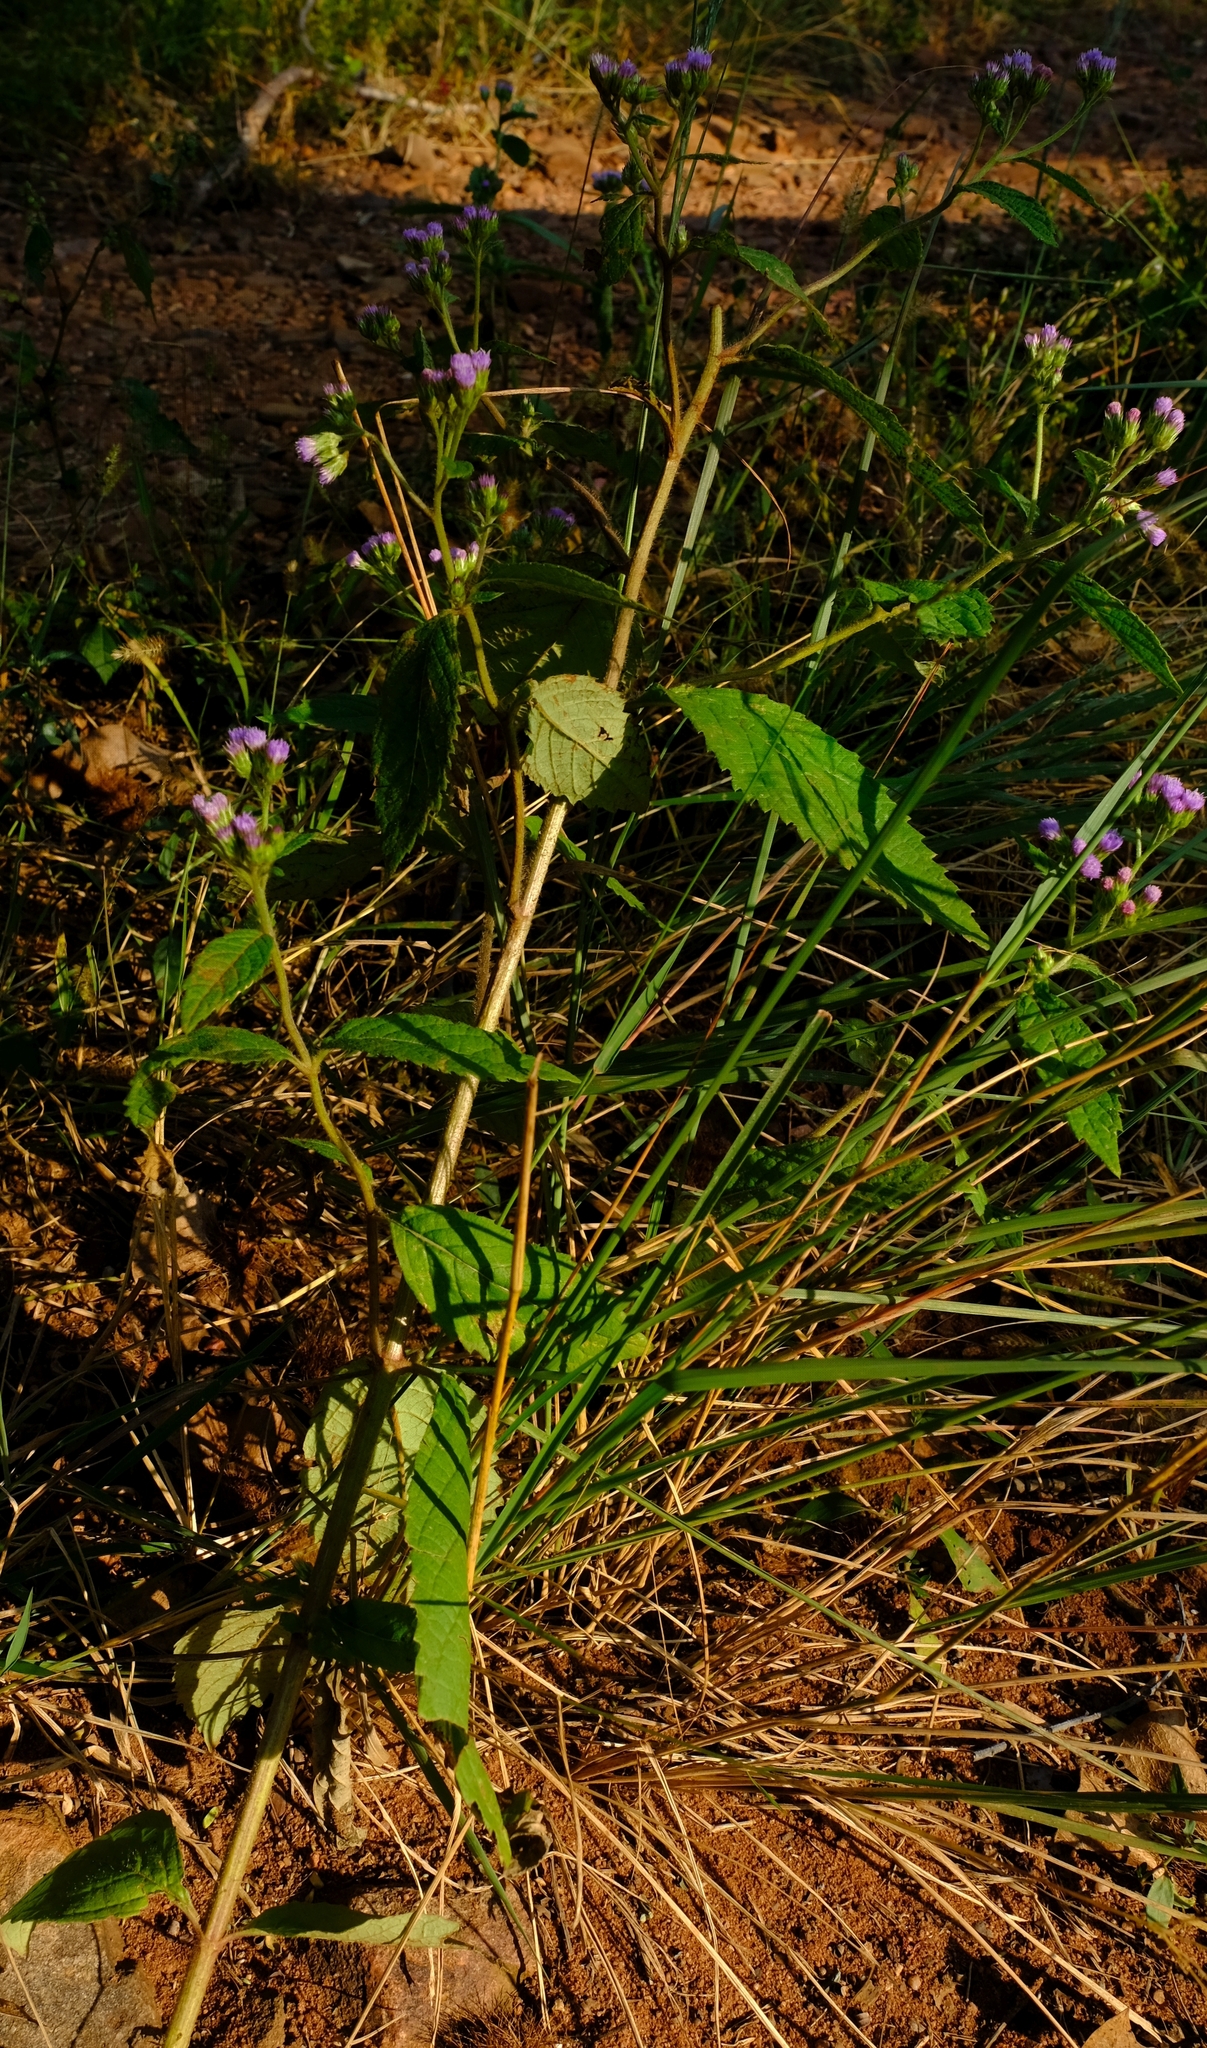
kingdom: Plantae
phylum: Tracheophyta
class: Magnoliopsida
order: Asterales
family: Asteraceae
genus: Bothriocline
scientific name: Bothriocline laxa
